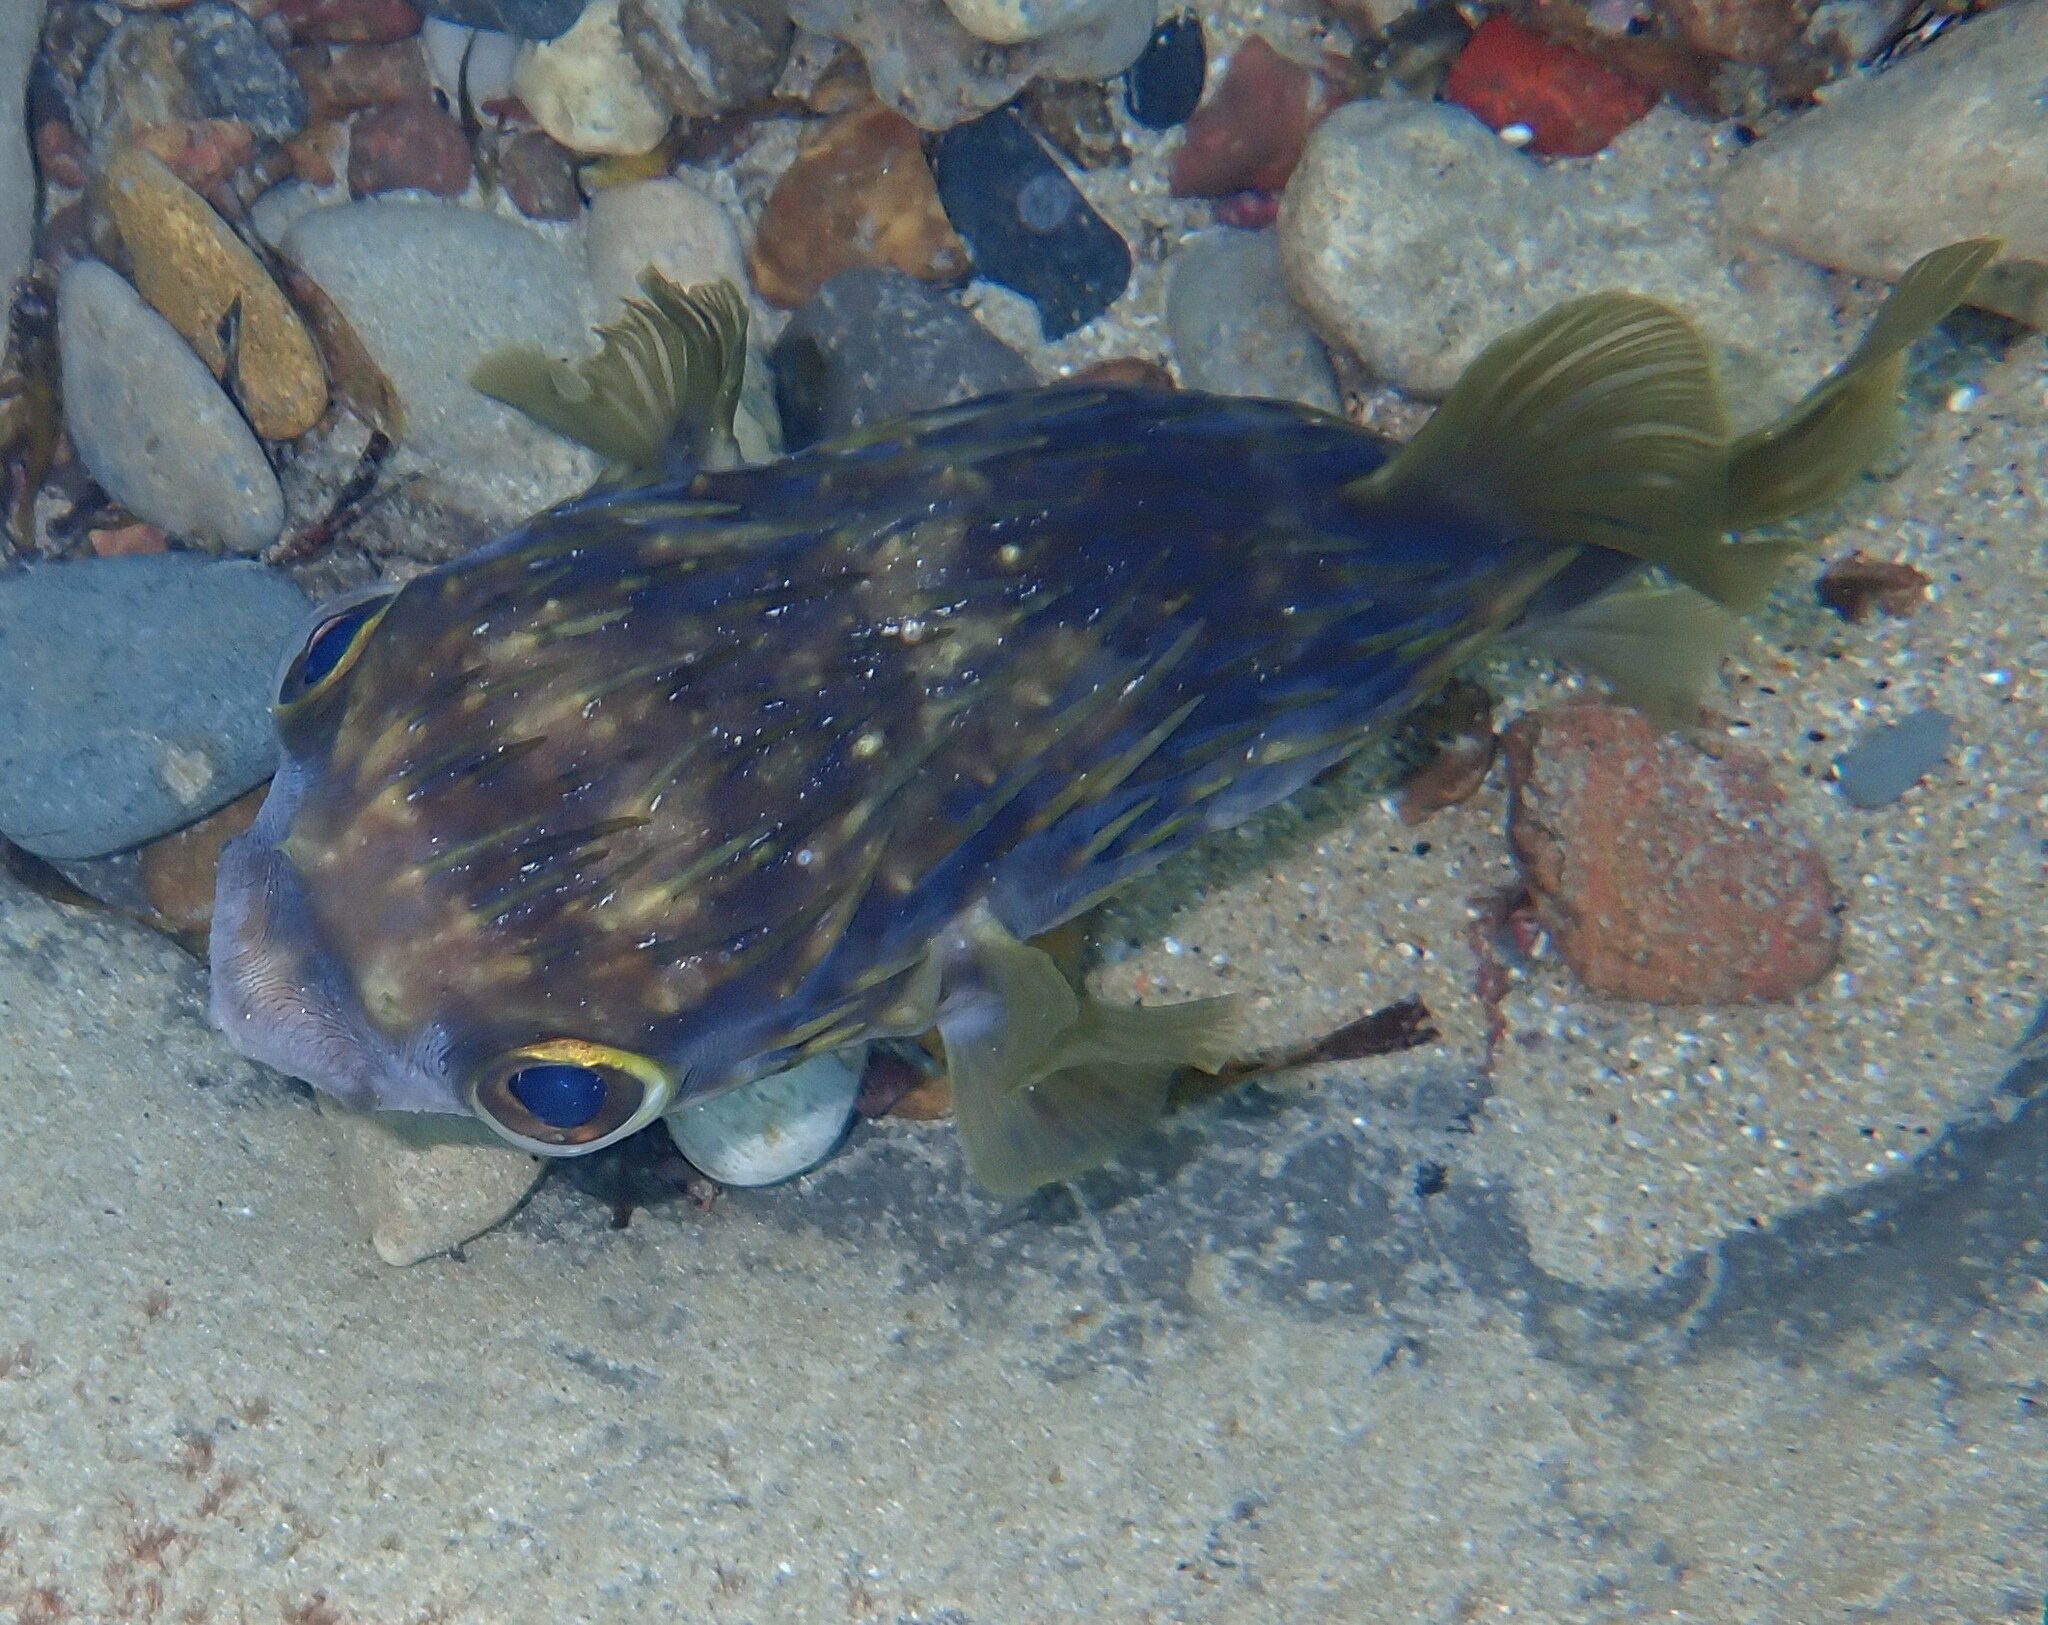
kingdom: Animalia
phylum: Chordata
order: Tetraodontiformes
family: Diodontidae
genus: Diodon
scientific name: Diodon nicthemerus
